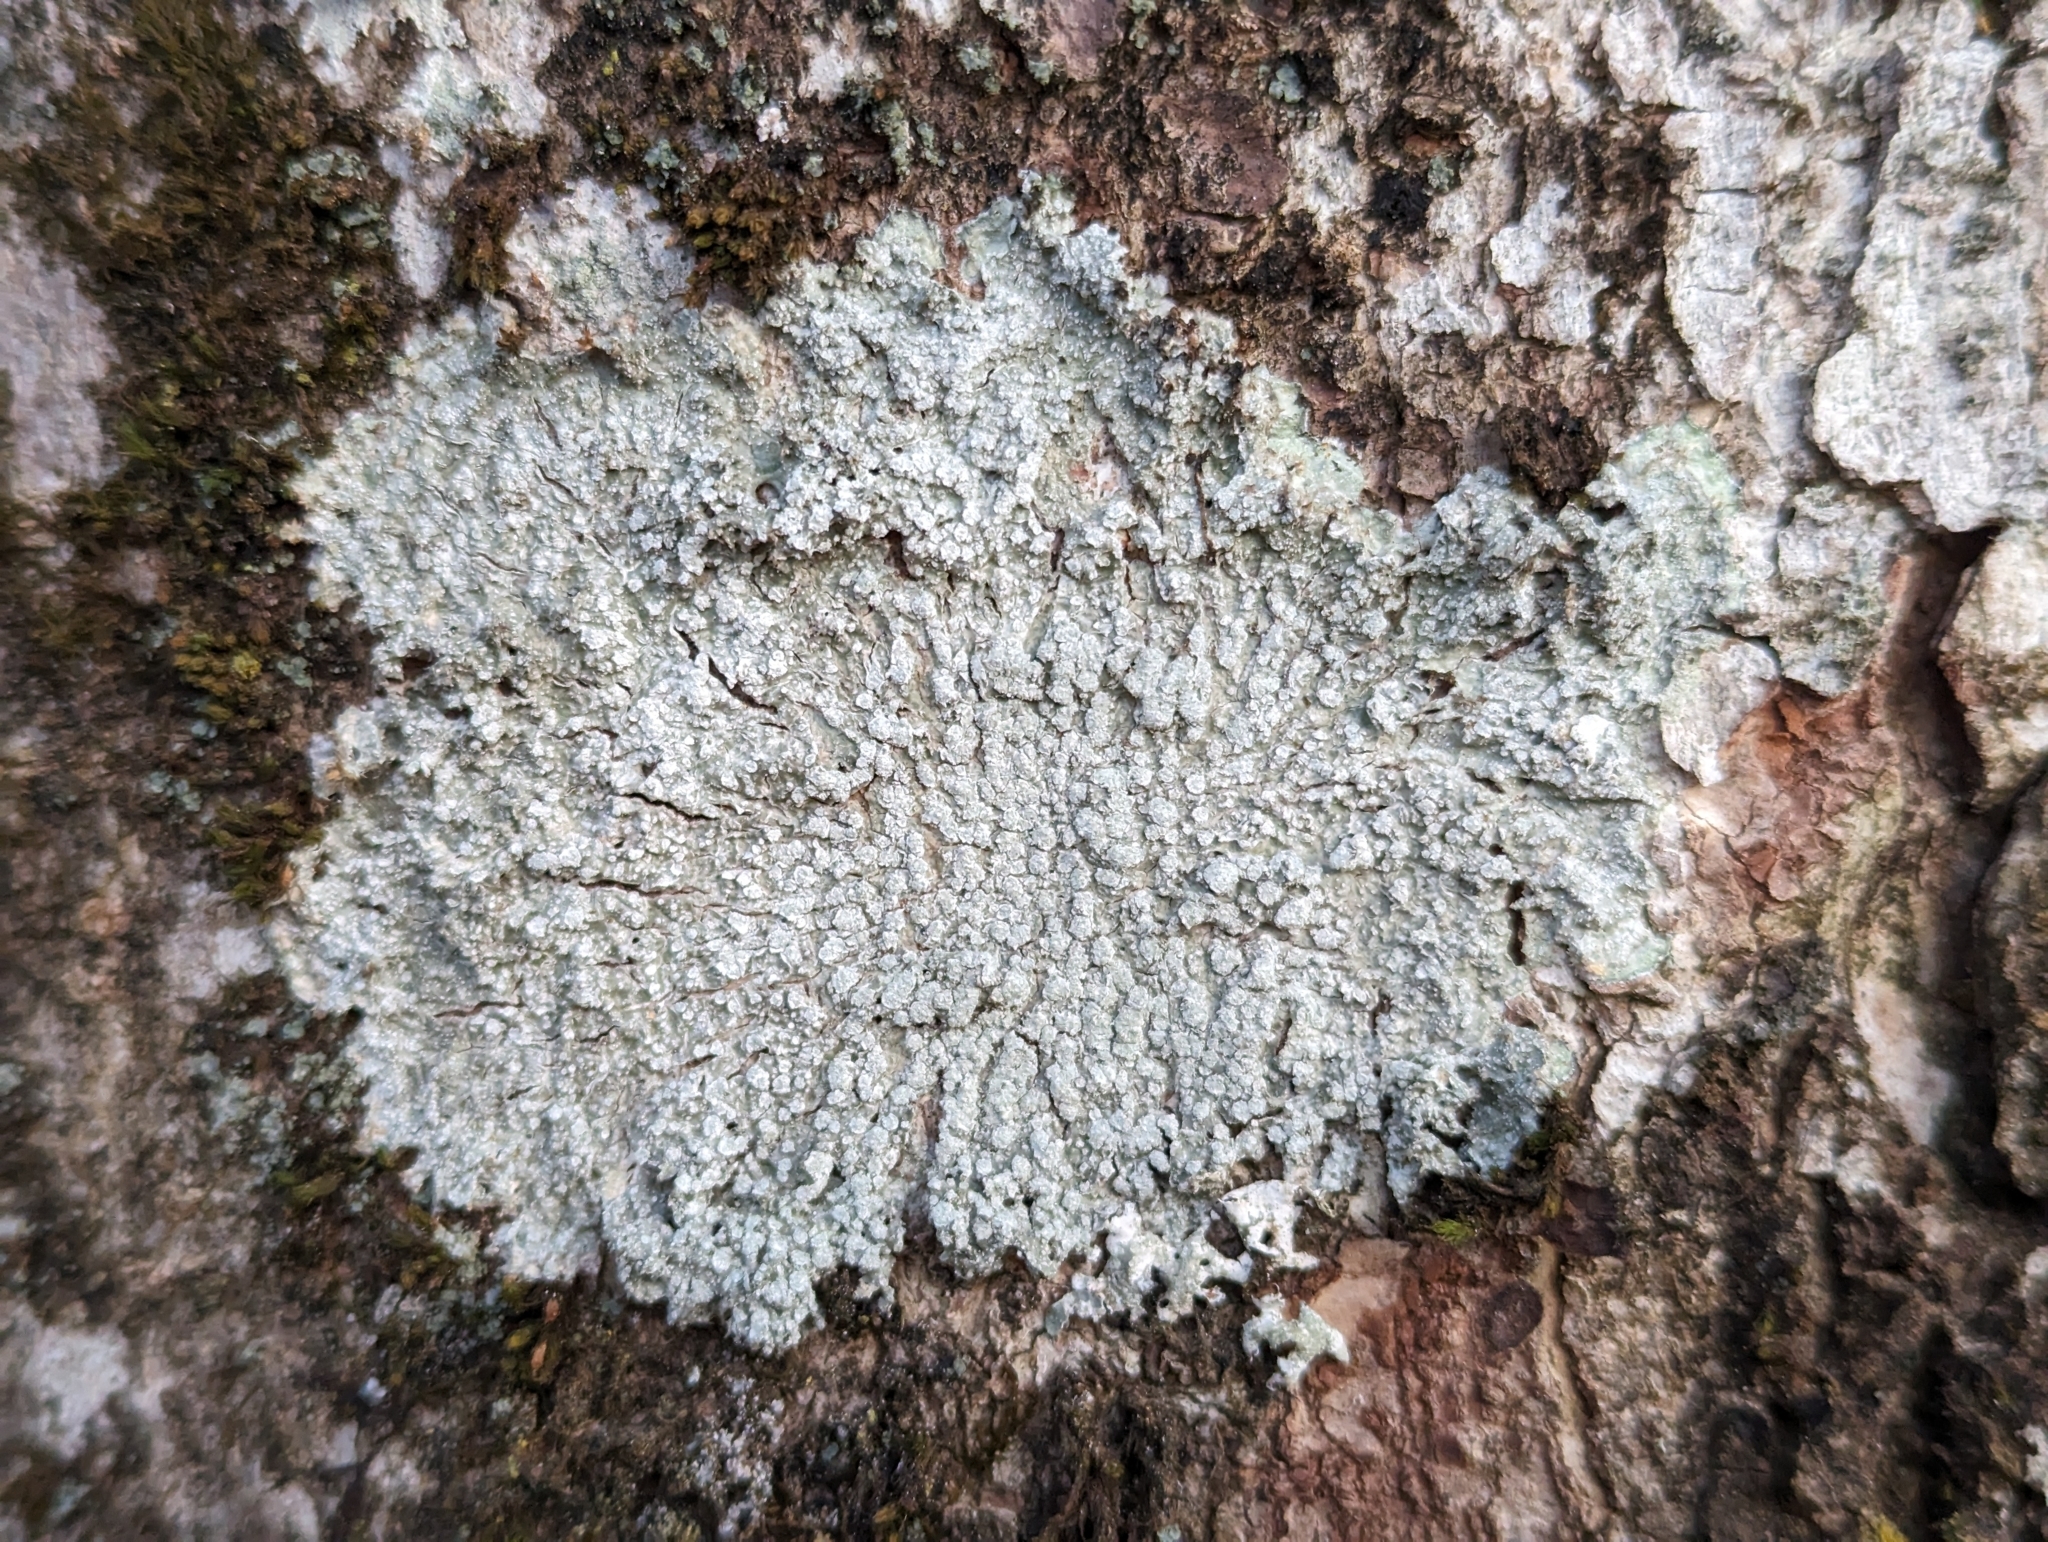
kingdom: Fungi
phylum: Ascomycota
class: Lecanoromycetes
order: Pertusariales
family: Pertusariaceae
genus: Lepra
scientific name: Lepra albescens
